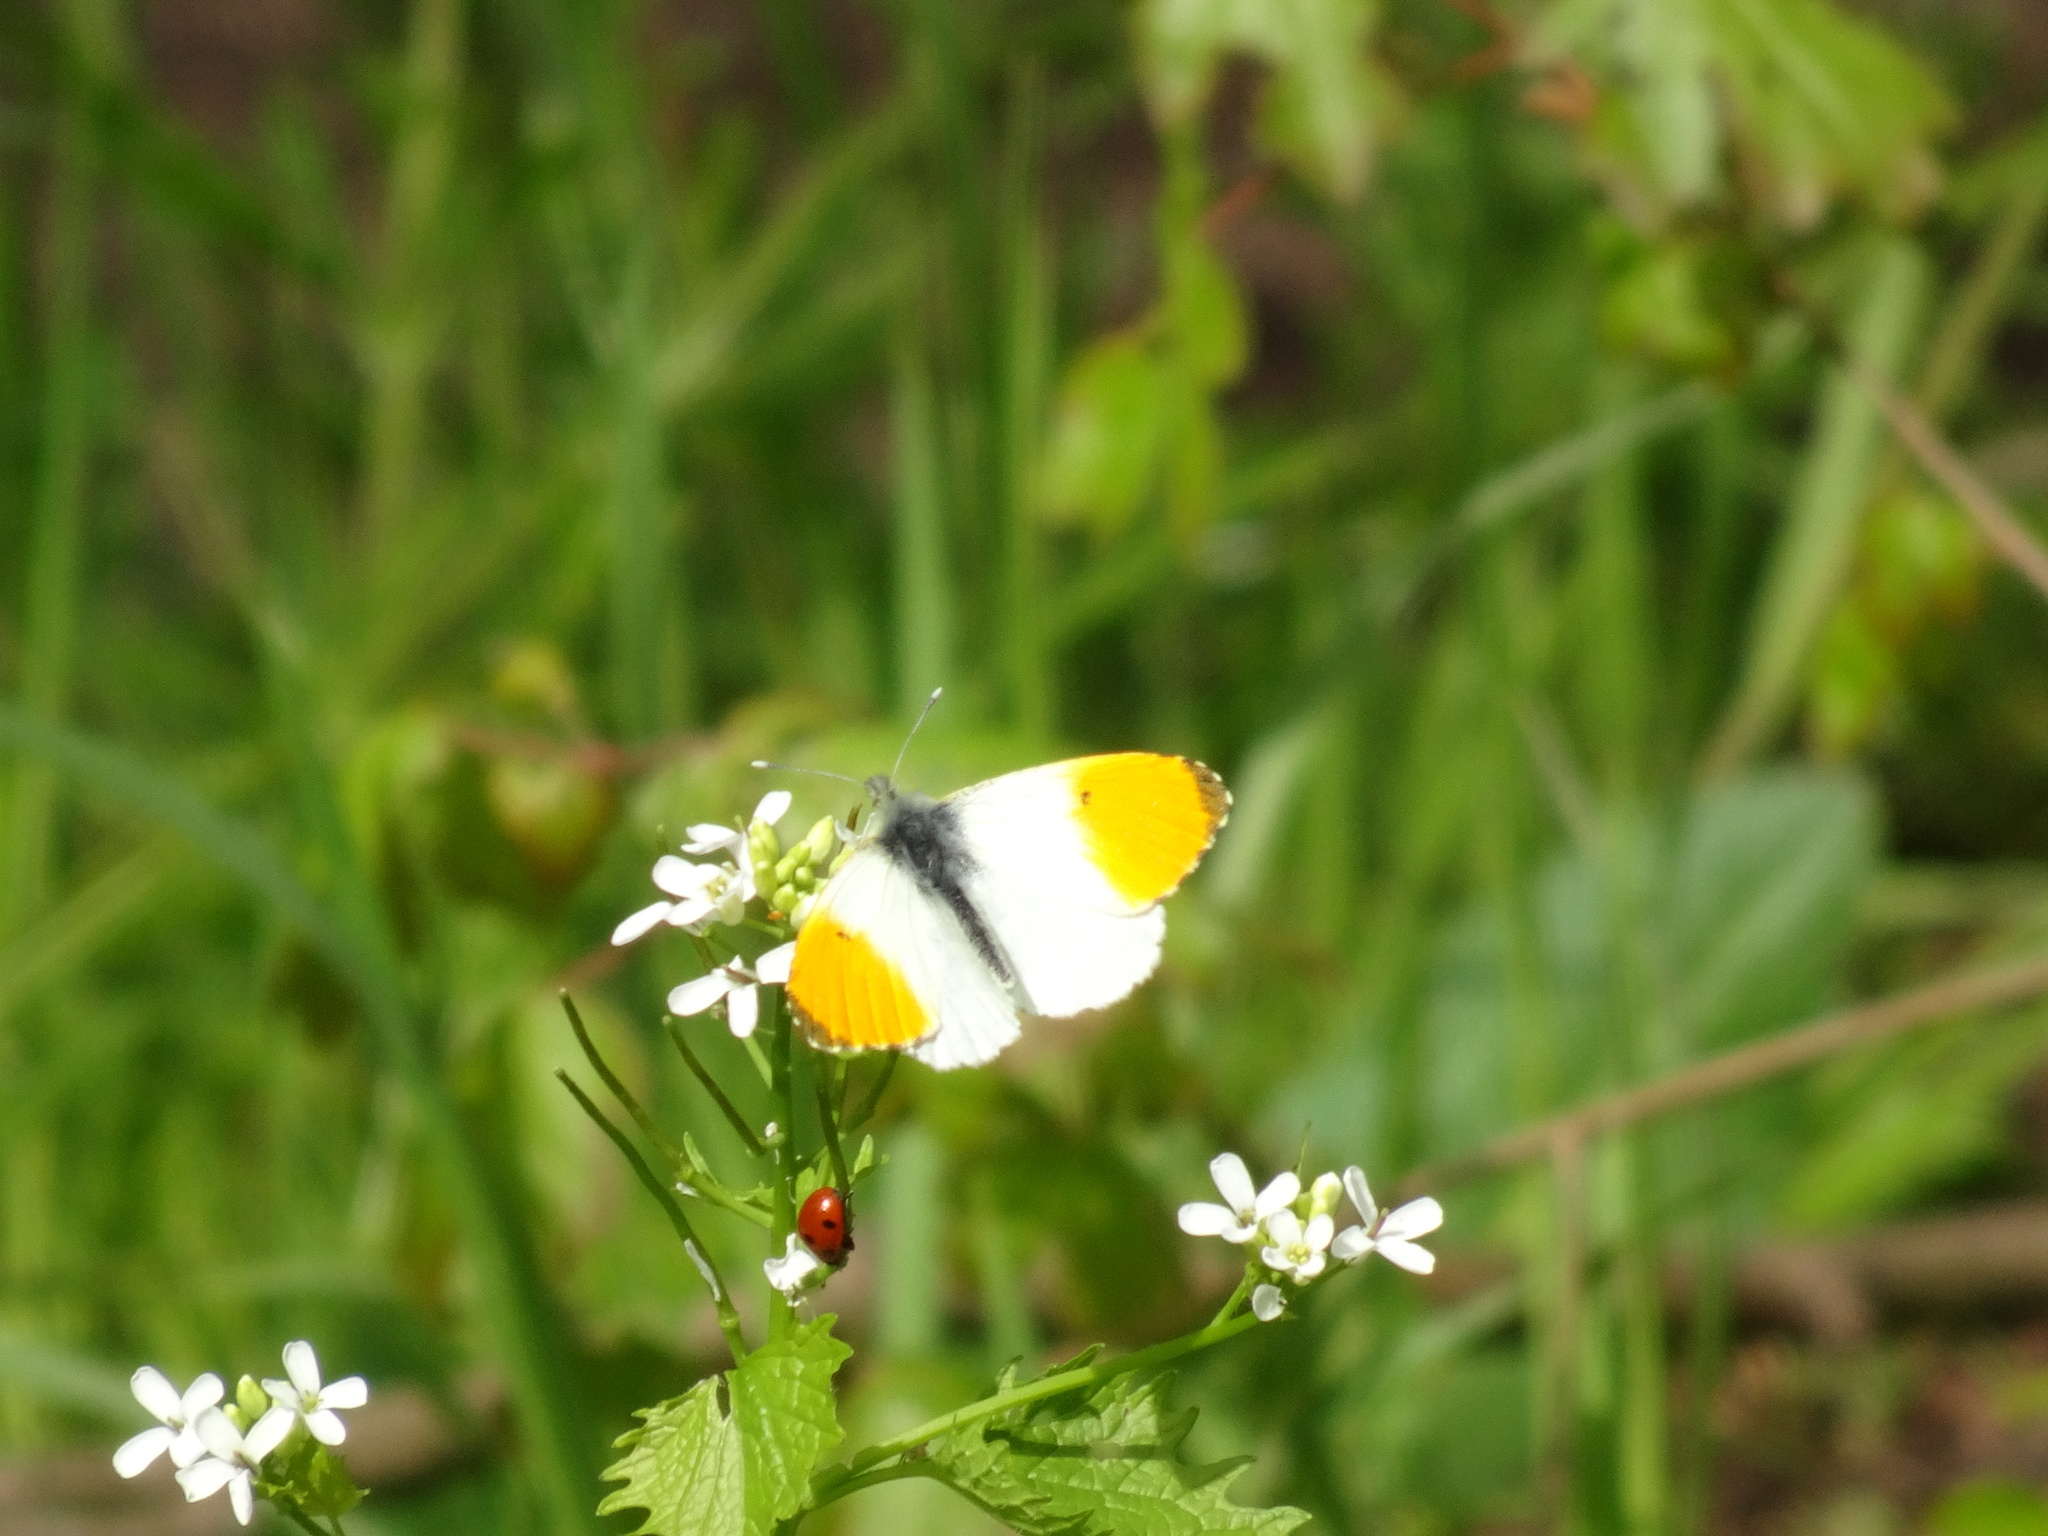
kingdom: Animalia
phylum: Arthropoda
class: Insecta
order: Lepidoptera
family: Pieridae
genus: Anthocharis
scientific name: Anthocharis cardamines
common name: Orange-tip
